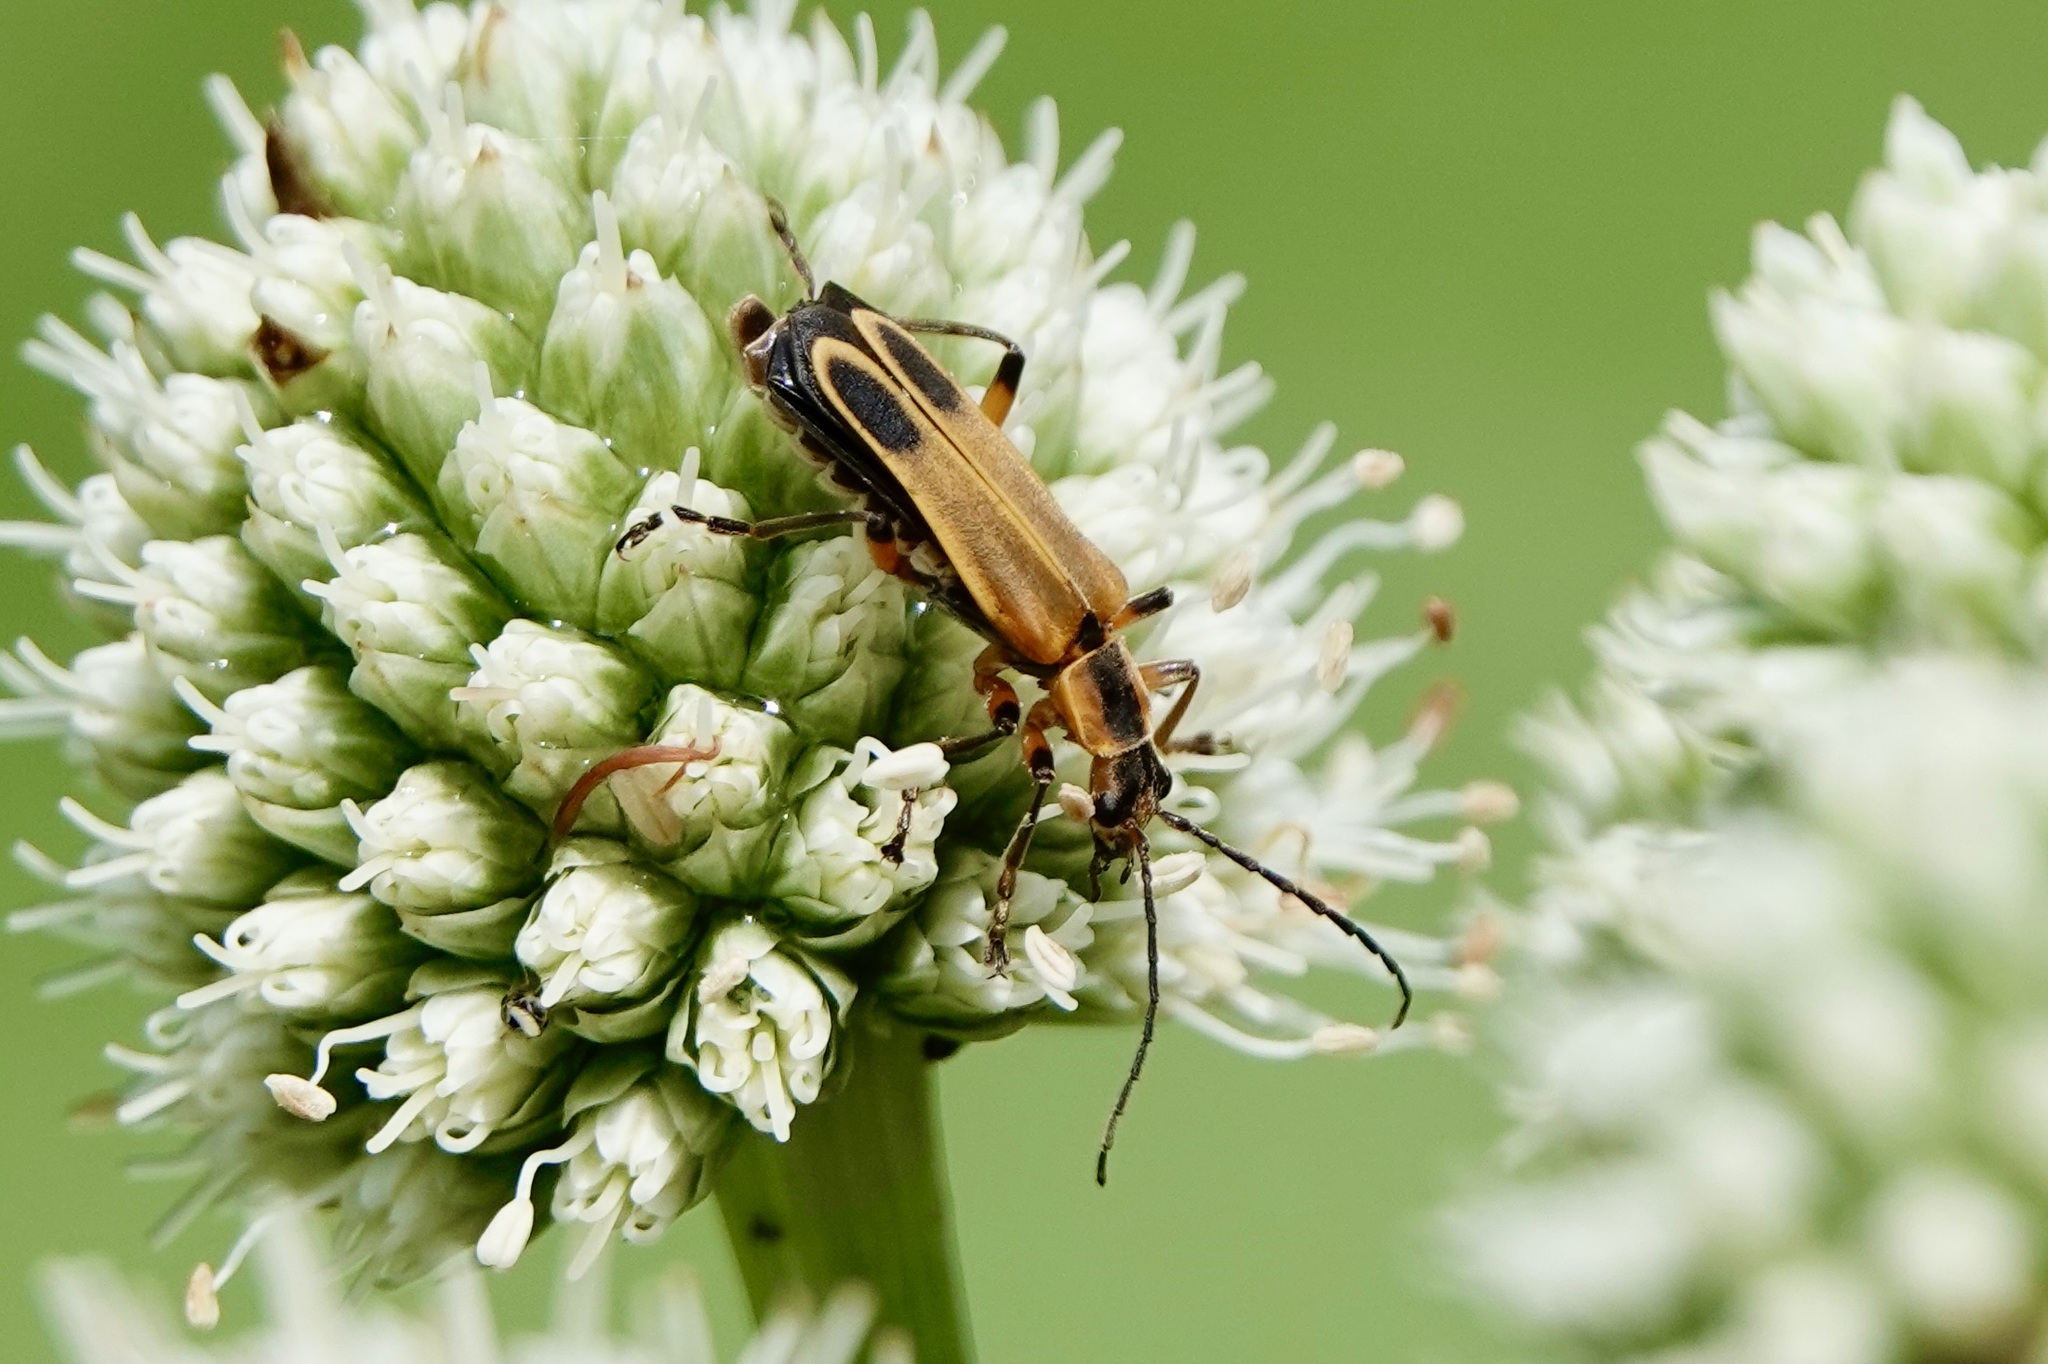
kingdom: Animalia
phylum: Arthropoda
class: Insecta
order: Coleoptera
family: Cantharidae
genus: Chauliognathus
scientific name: Chauliognathus marginatus
